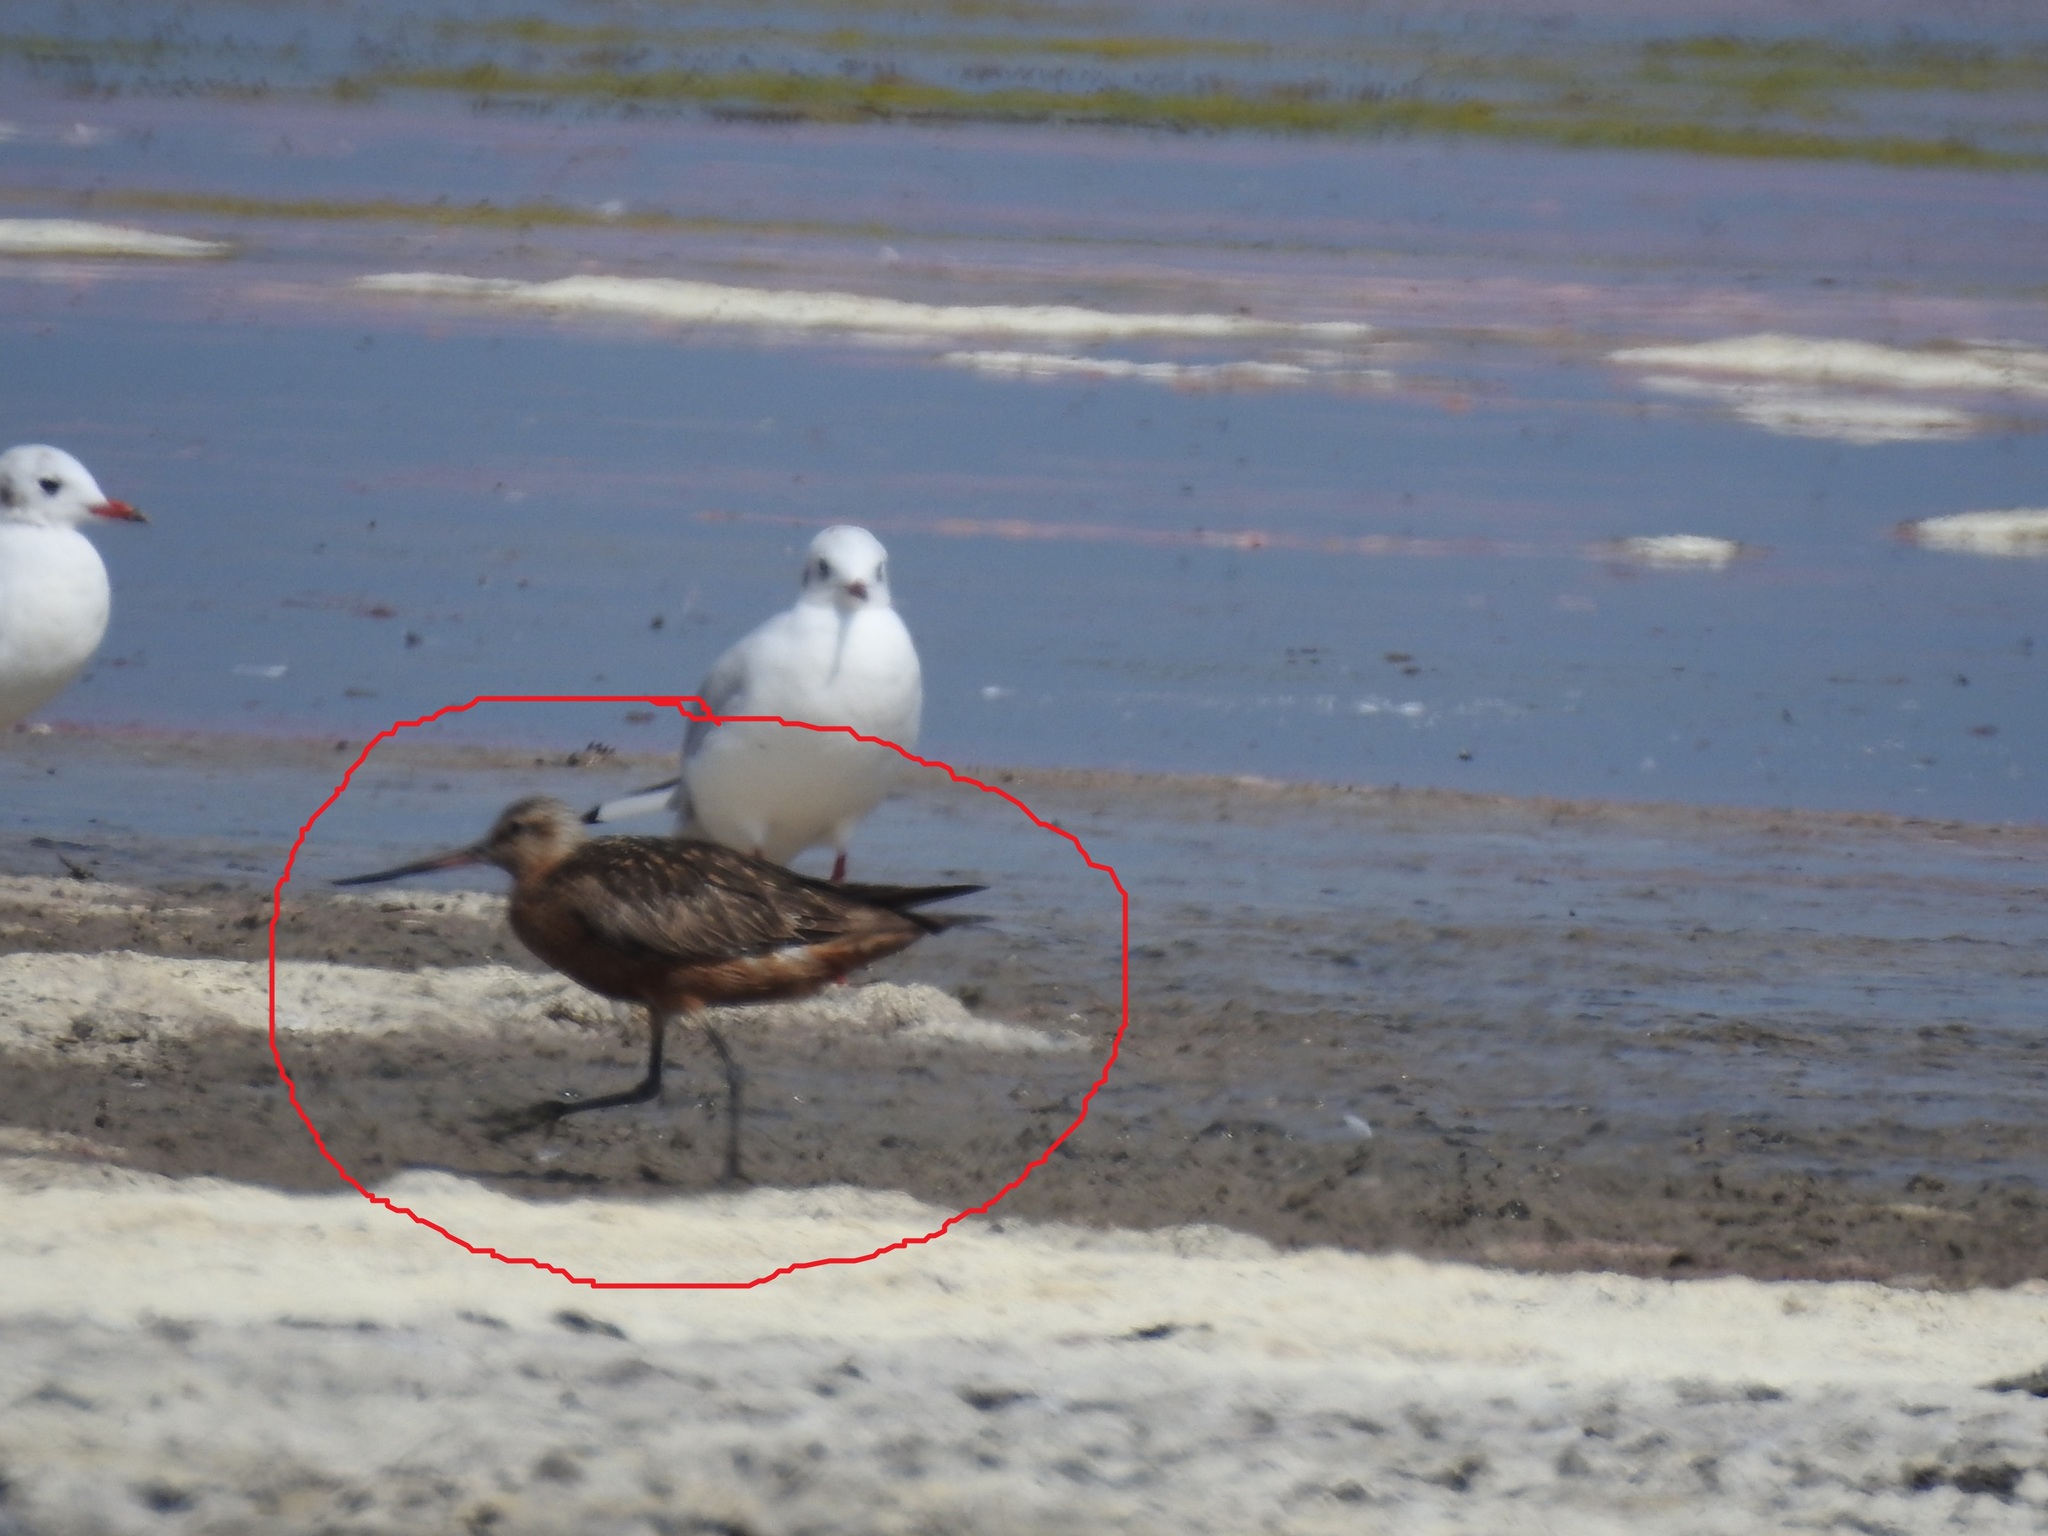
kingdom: Animalia
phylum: Chordata
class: Aves
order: Charadriiformes
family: Scolopacidae
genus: Limosa
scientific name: Limosa lapponica
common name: Bar-tailed godwit
